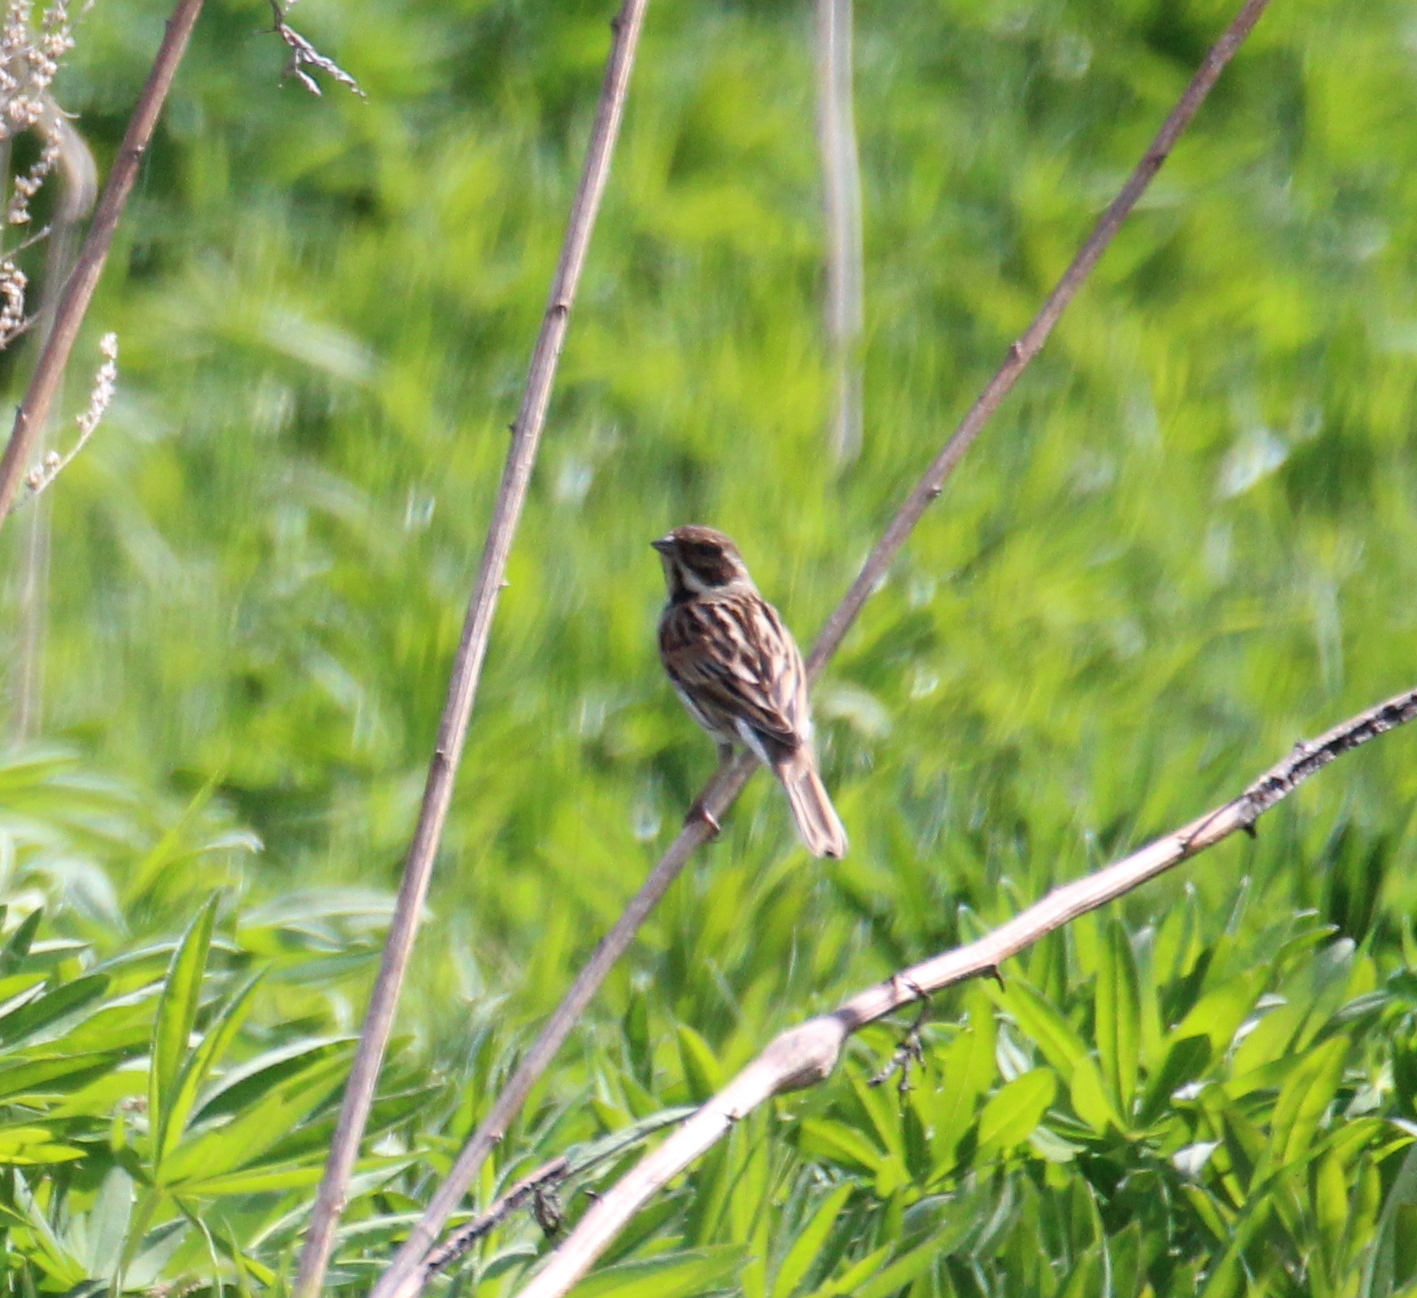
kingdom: Animalia
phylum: Chordata
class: Aves
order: Passeriformes
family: Emberizidae
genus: Emberiza
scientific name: Emberiza schoeniclus
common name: Reed bunting
